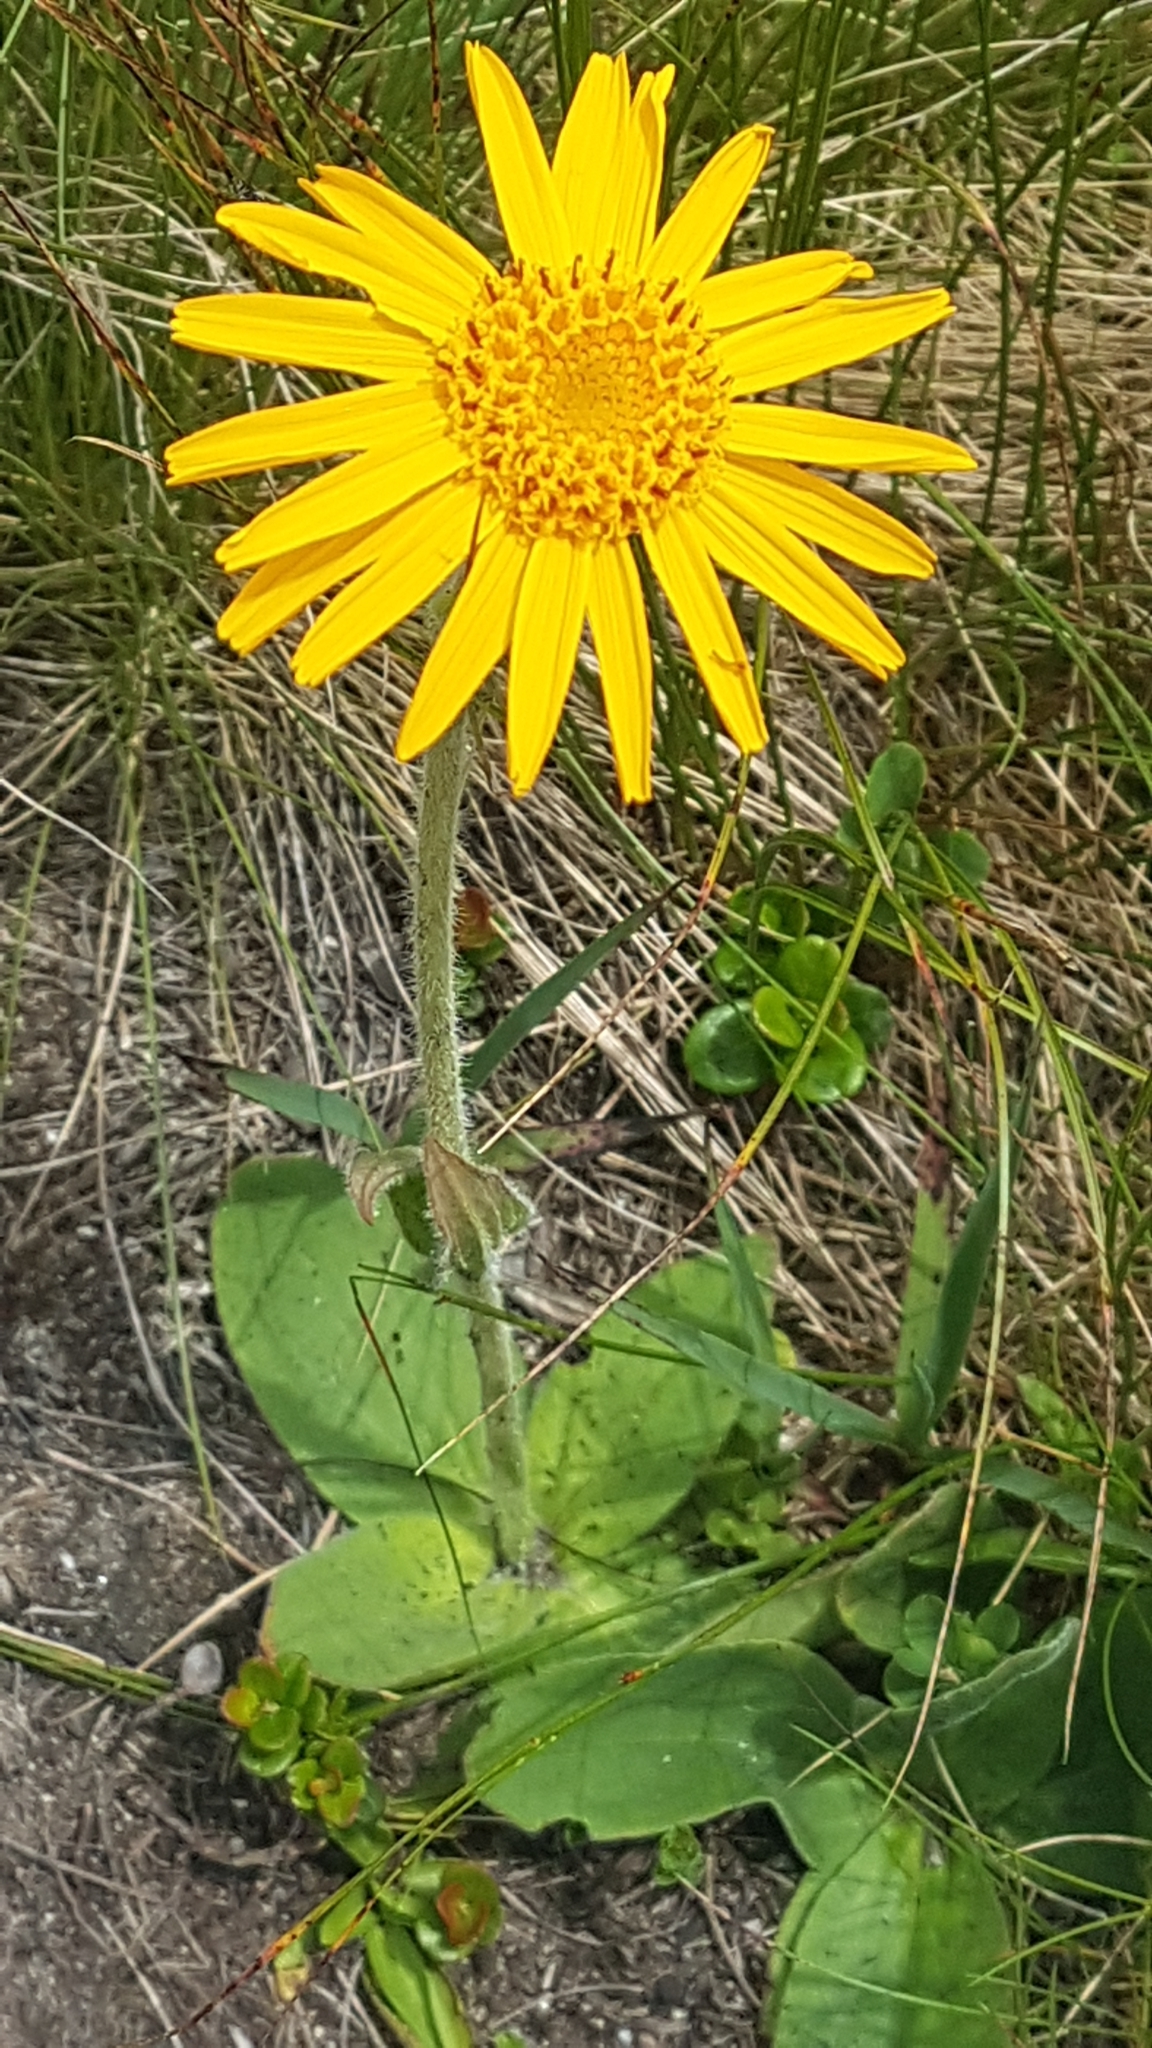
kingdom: Plantae
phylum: Tracheophyta
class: Magnoliopsida
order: Asterales
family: Asteraceae
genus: Arnica
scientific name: Arnica montana
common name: Leopard's bane
